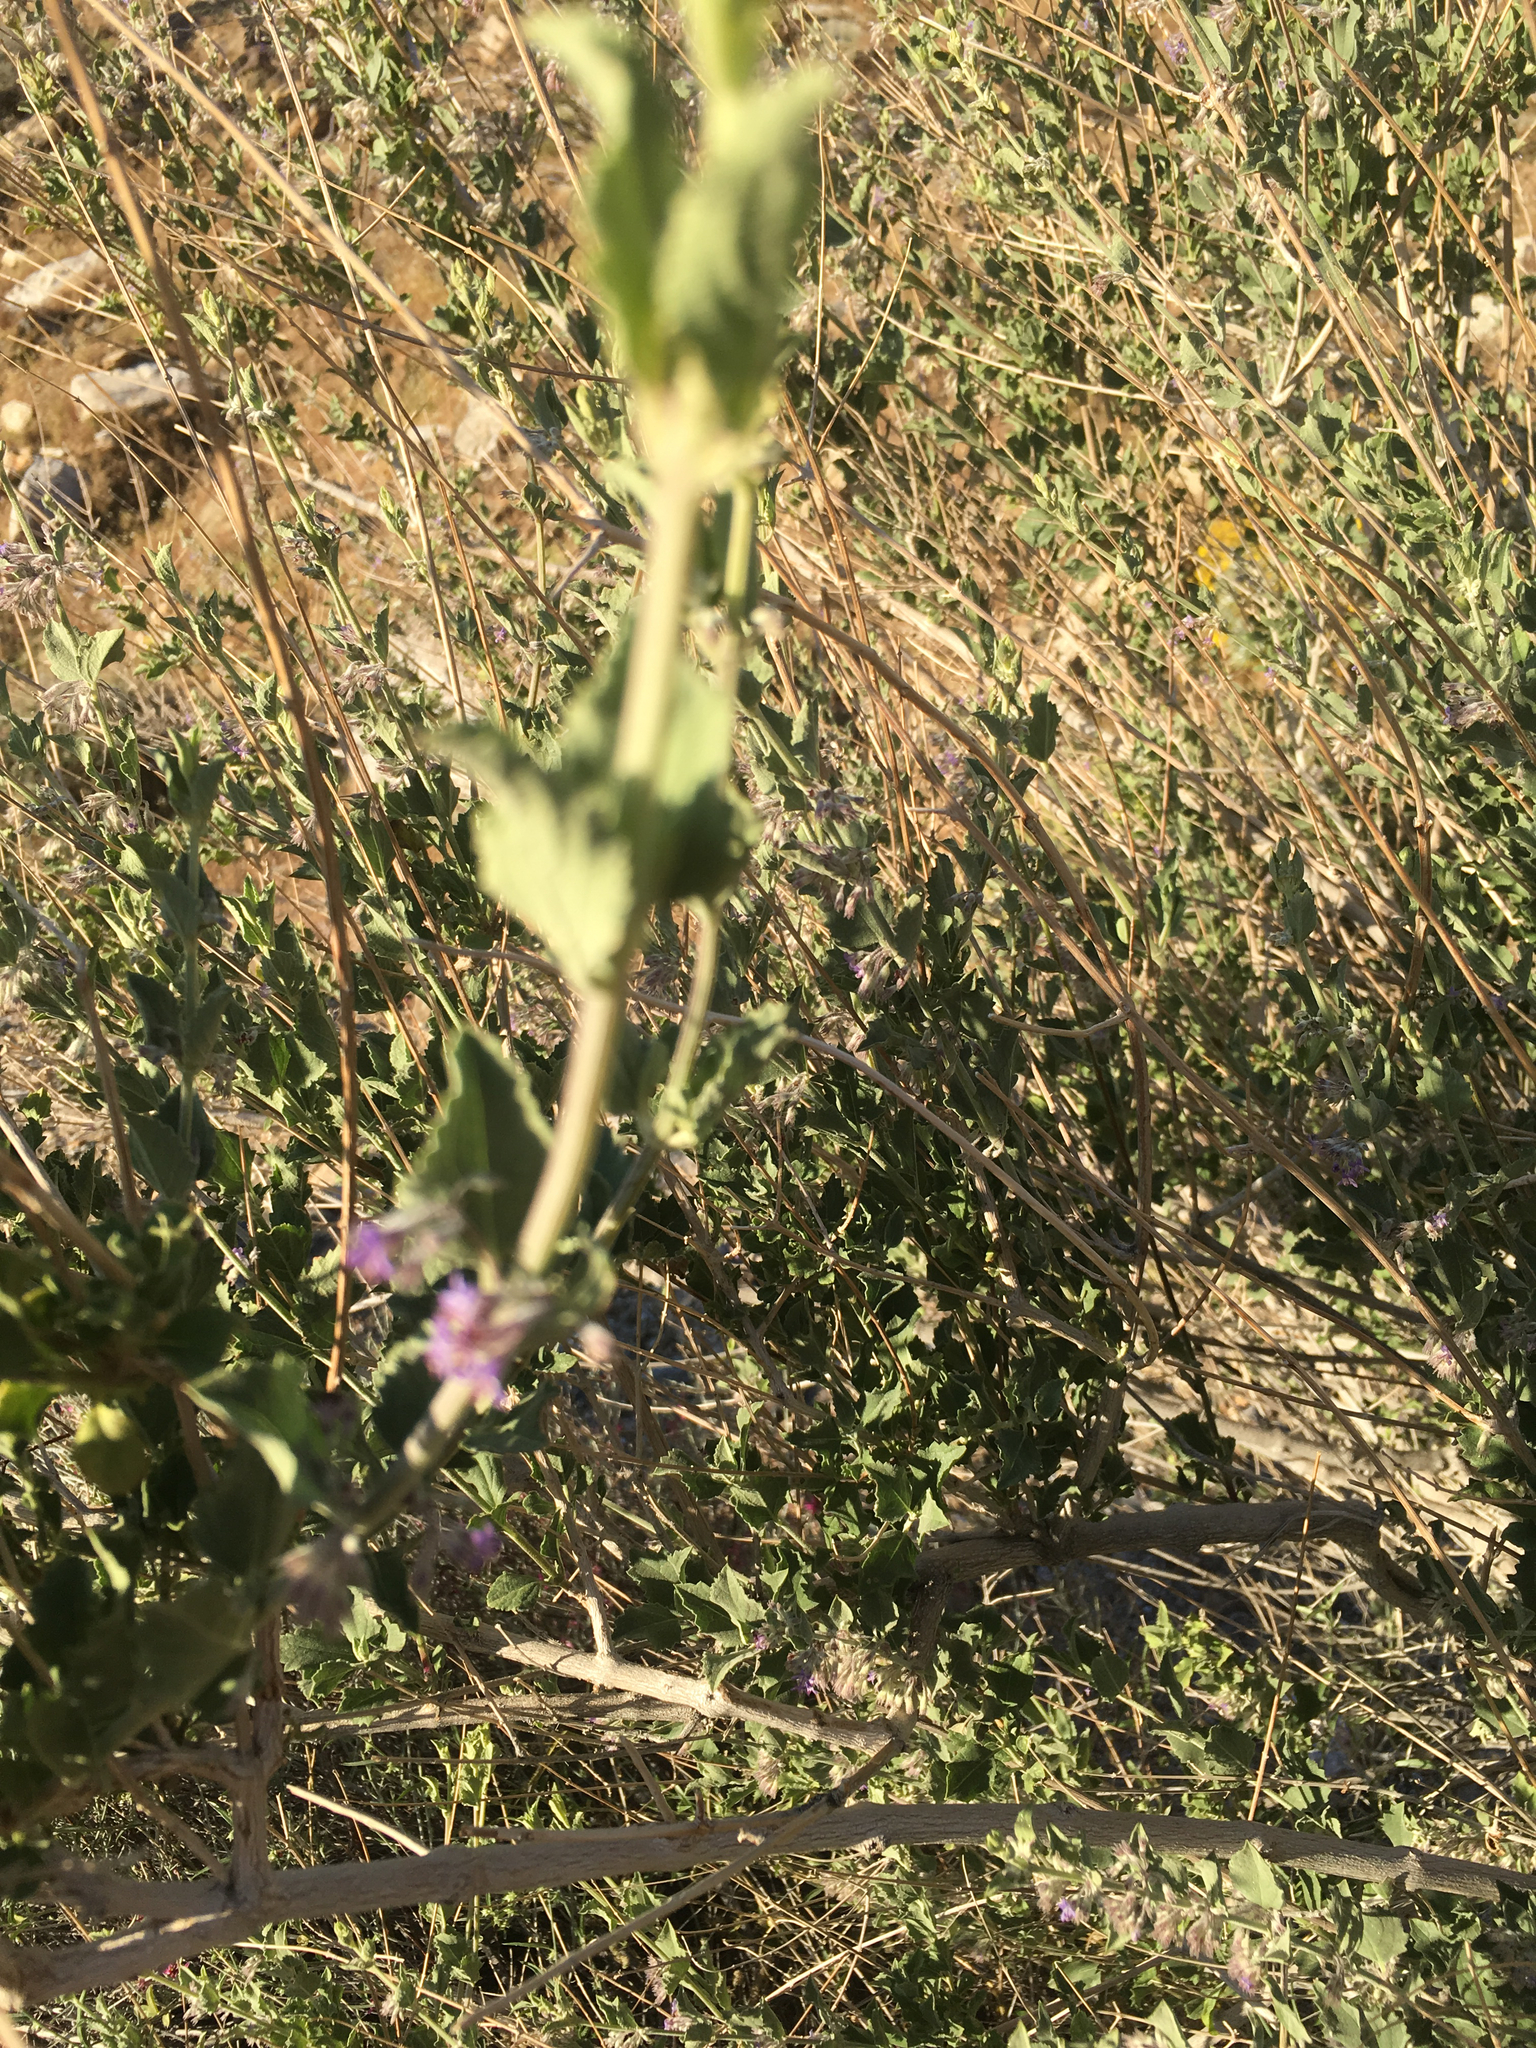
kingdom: Plantae
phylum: Tracheophyta
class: Magnoliopsida
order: Lamiales
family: Lamiaceae
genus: Condea
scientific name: Condea emoryi
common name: Chia
